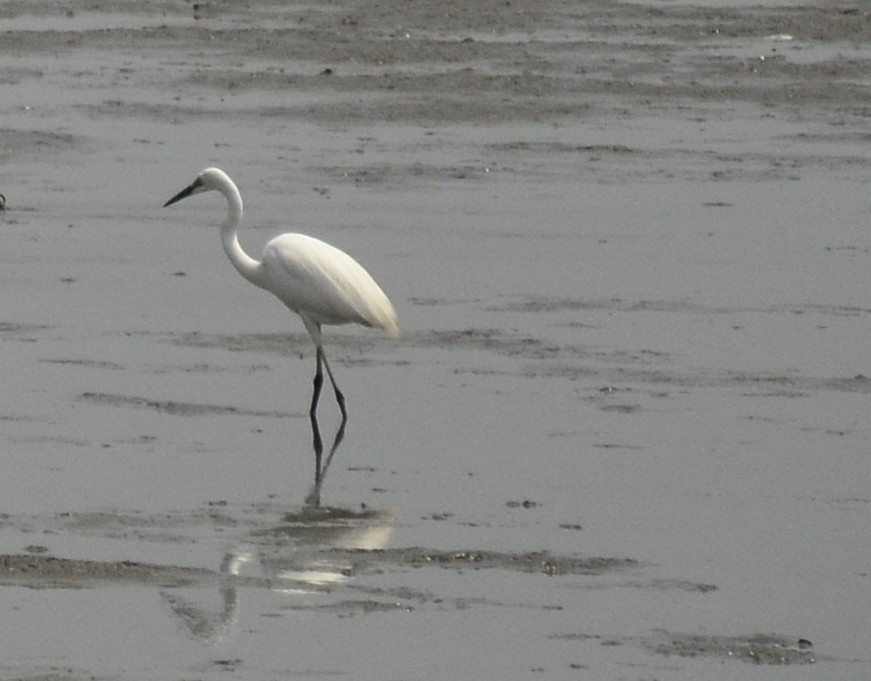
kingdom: Animalia
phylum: Chordata
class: Aves
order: Pelecaniformes
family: Ardeidae
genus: Egretta
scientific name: Egretta garzetta
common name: Little egret
